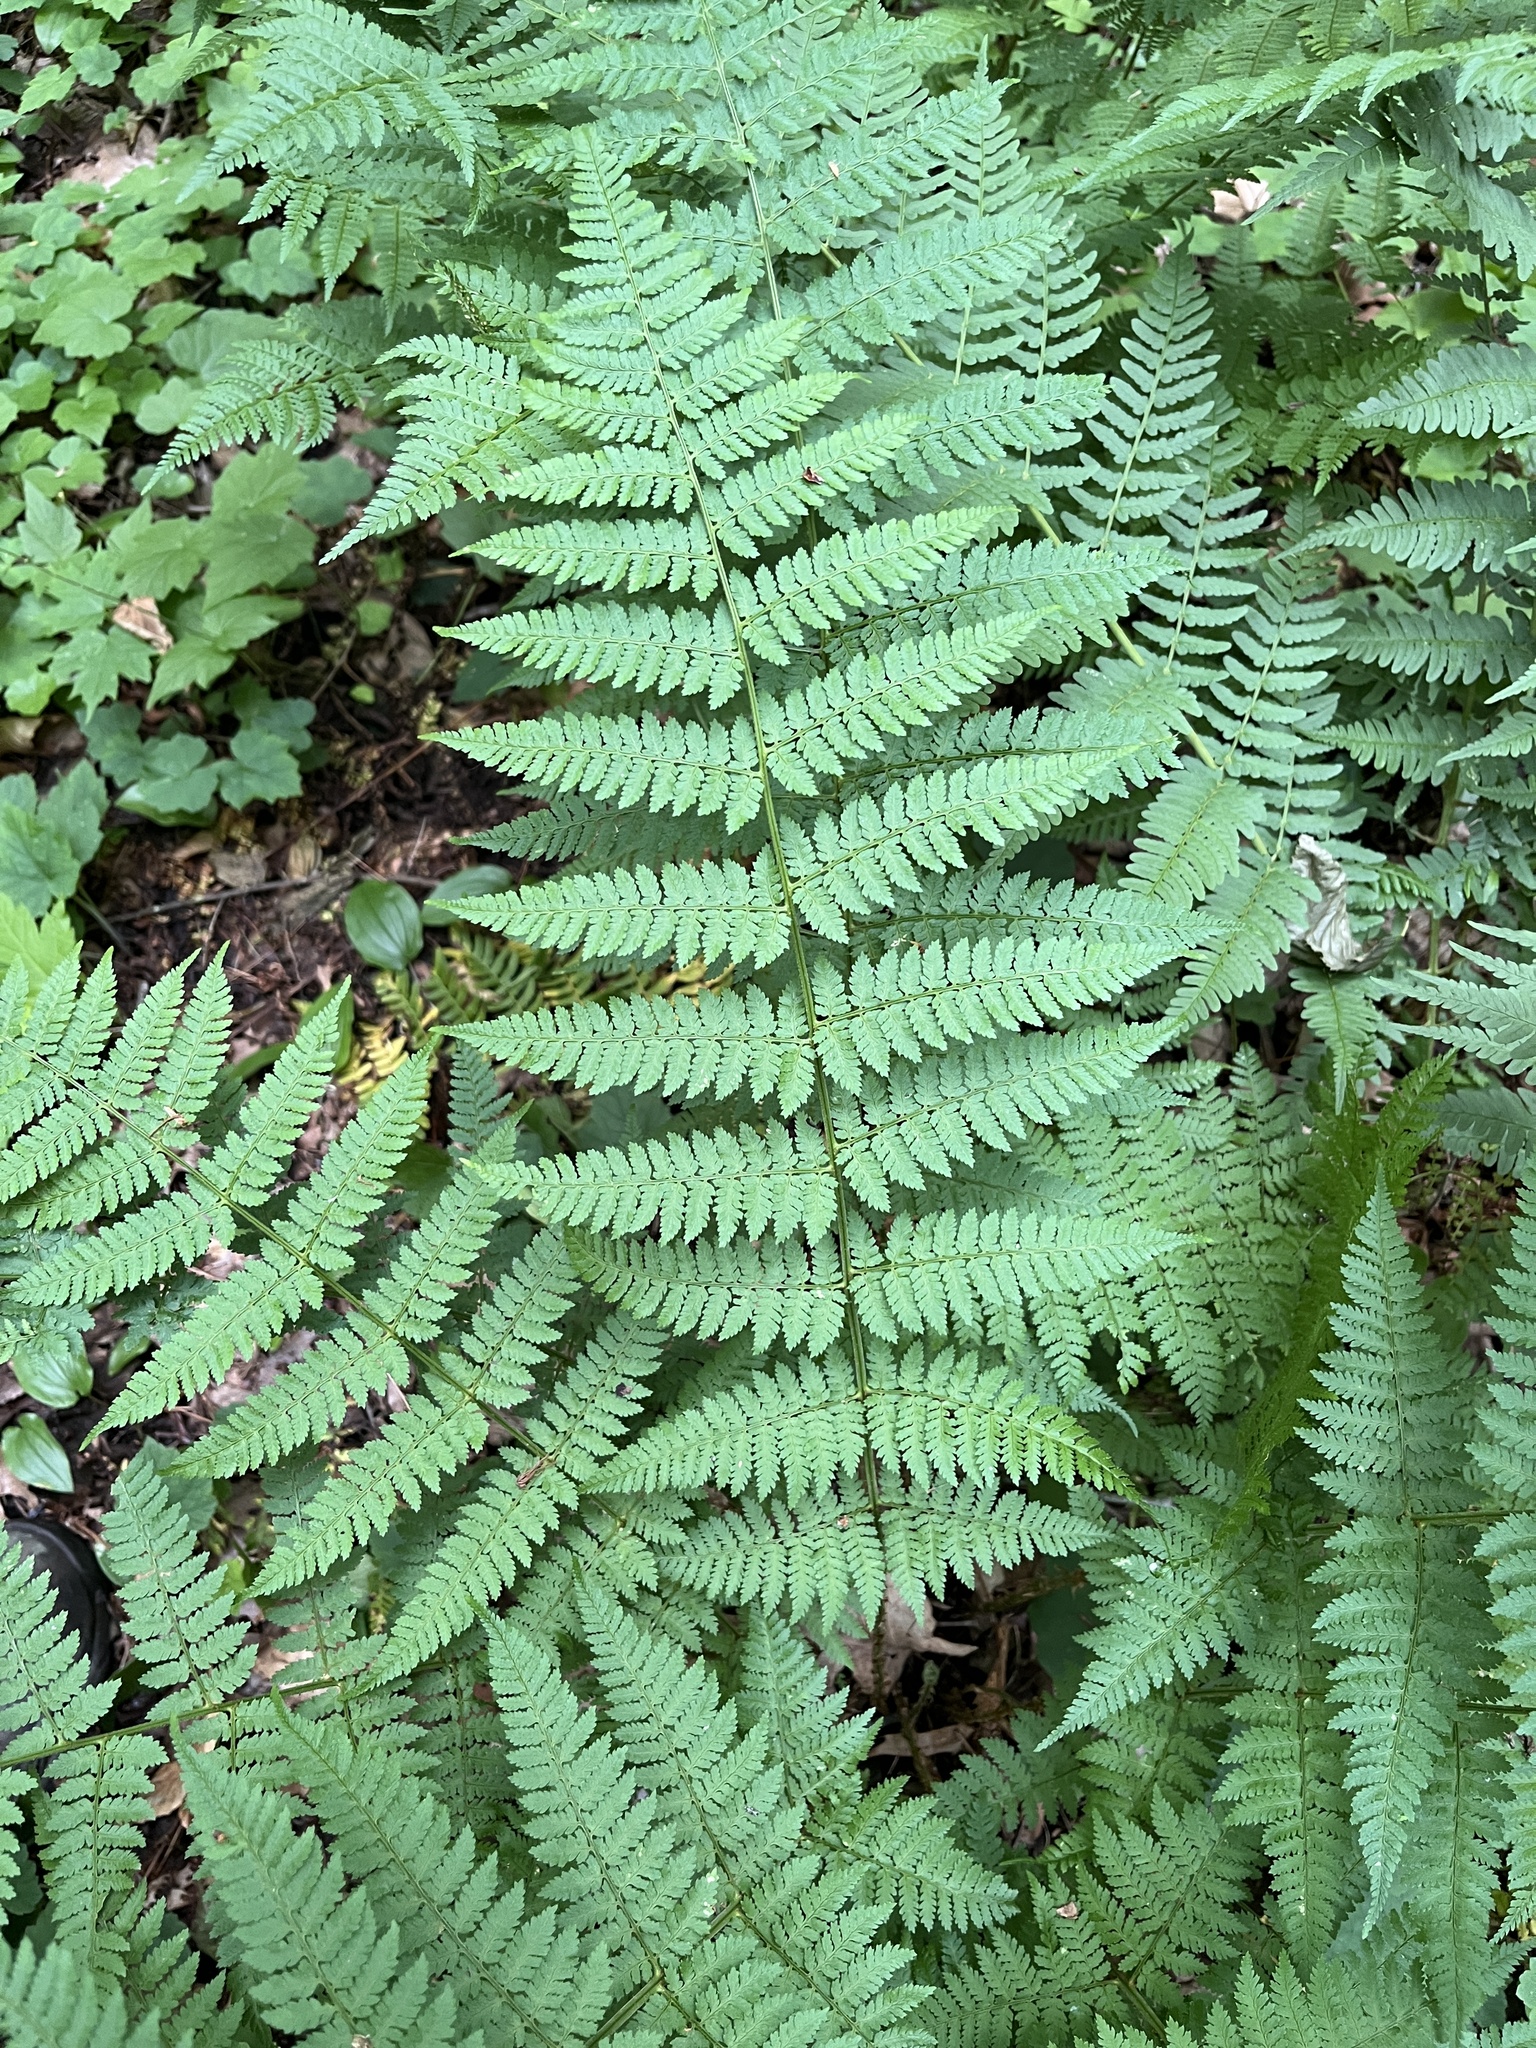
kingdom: Plantae
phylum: Tracheophyta
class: Polypodiopsida
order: Polypodiales
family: Dryopteridaceae
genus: Dryopteris
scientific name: Dryopteris intermedia
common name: Evergreen wood fern
